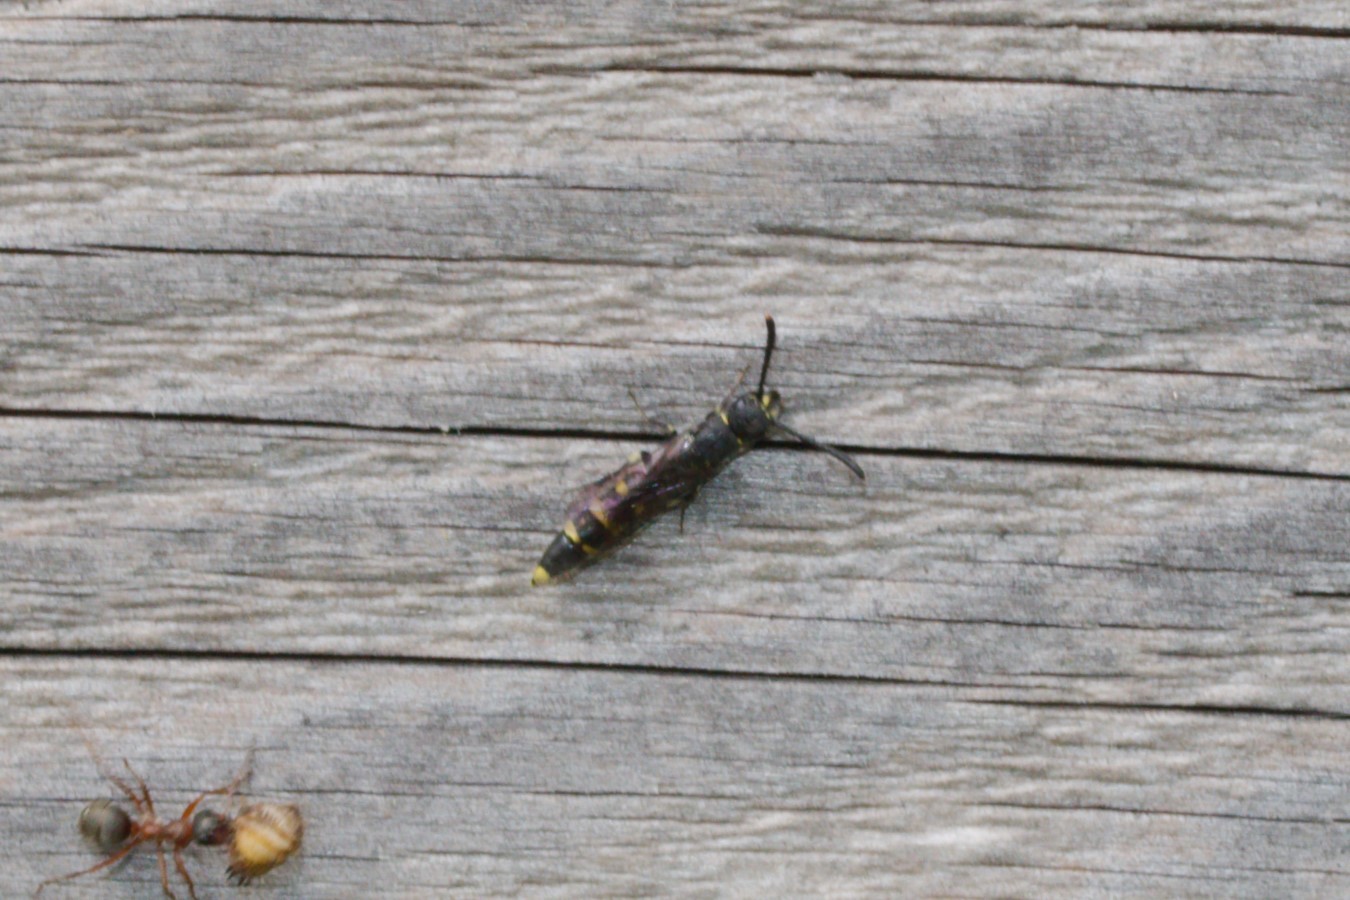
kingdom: Animalia
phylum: Arthropoda
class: Insecta
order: Hymenoptera
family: Sapygidae
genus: Monosapyga
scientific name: Monosapyga clavicornis
